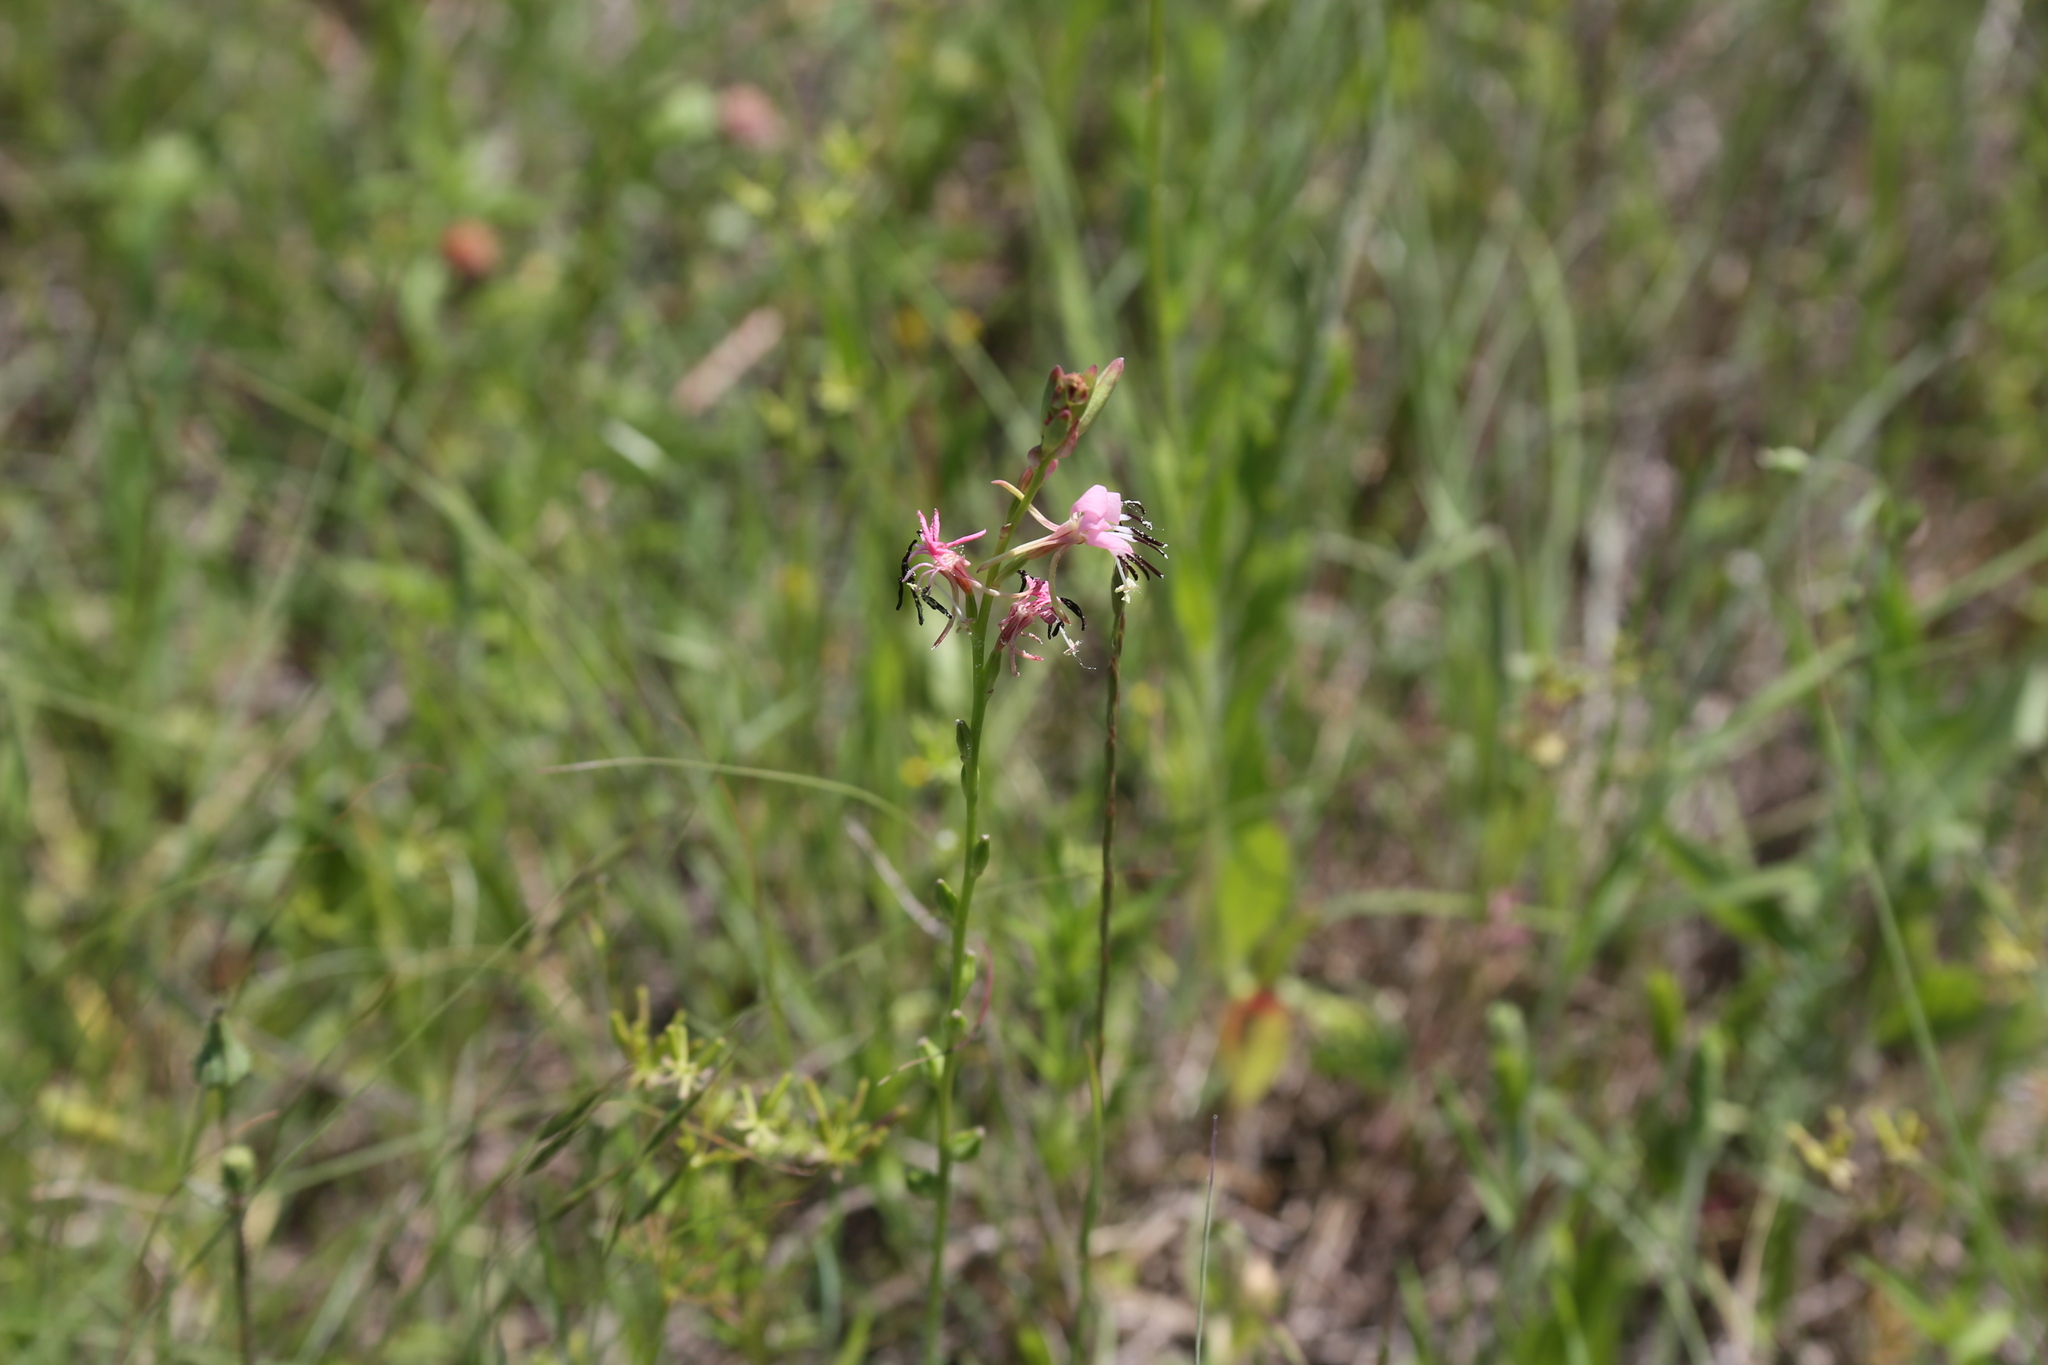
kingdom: Plantae
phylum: Tracheophyta
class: Magnoliopsida
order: Myrtales
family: Onagraceae
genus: Oenothera
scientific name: Oenothera suffulta
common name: Kisses
